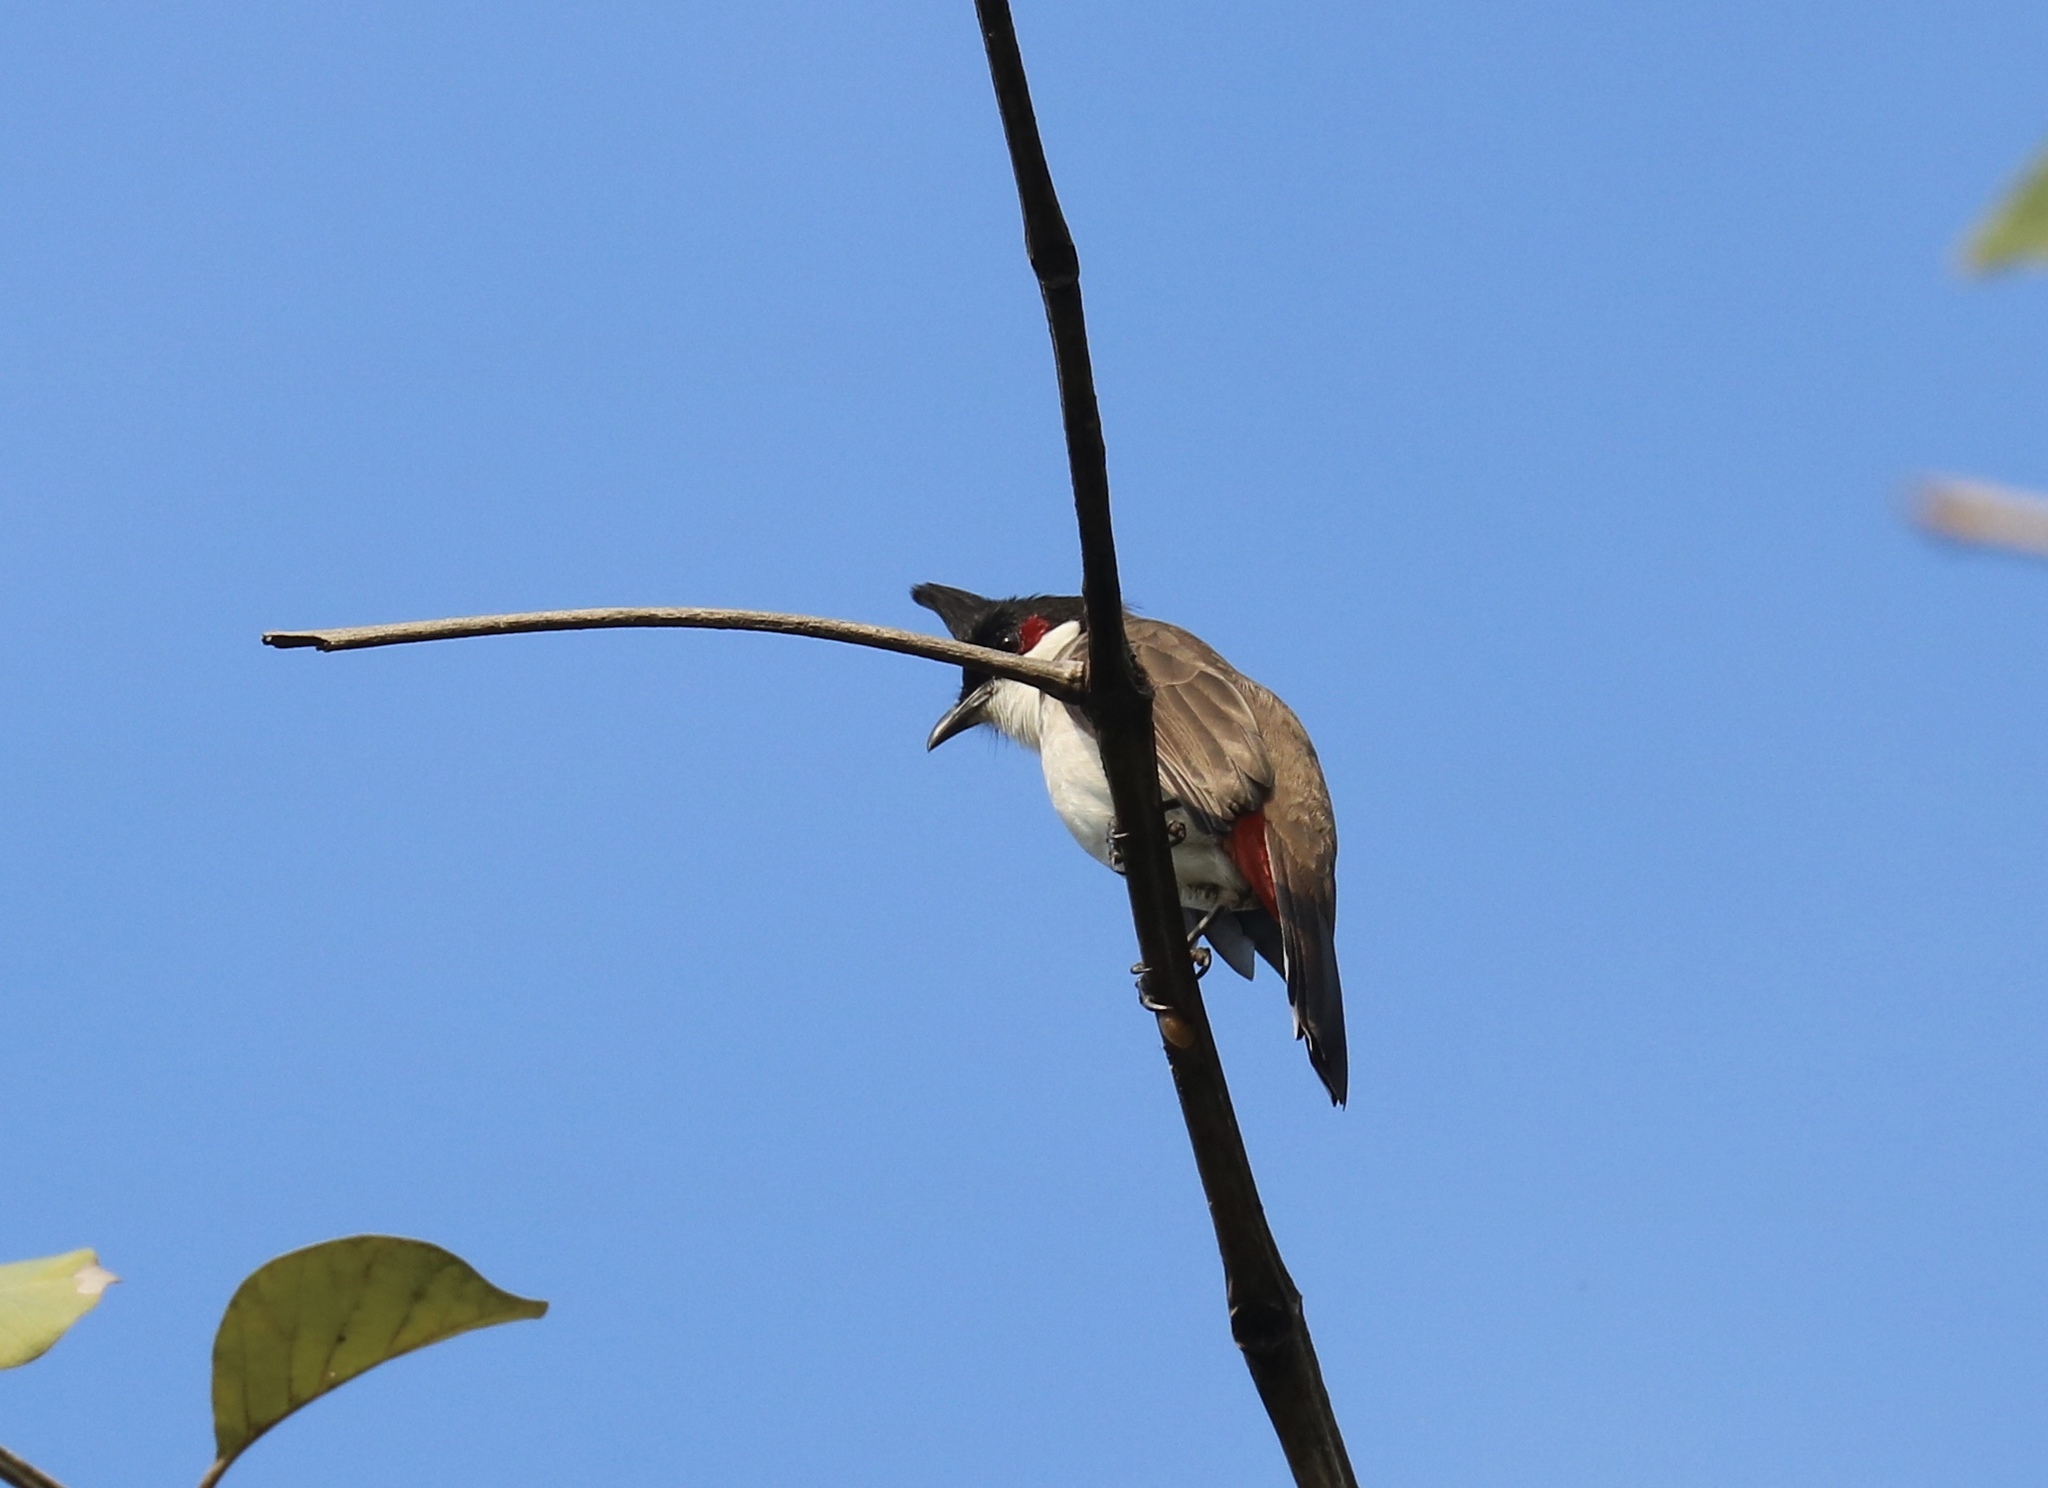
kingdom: Animalia
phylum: Chordata
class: Aves
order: Passeriformes
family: Pycnonotidae
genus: Pycnonotus
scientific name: Pycnonotus jocosus
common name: Red-whiskered bulbul
